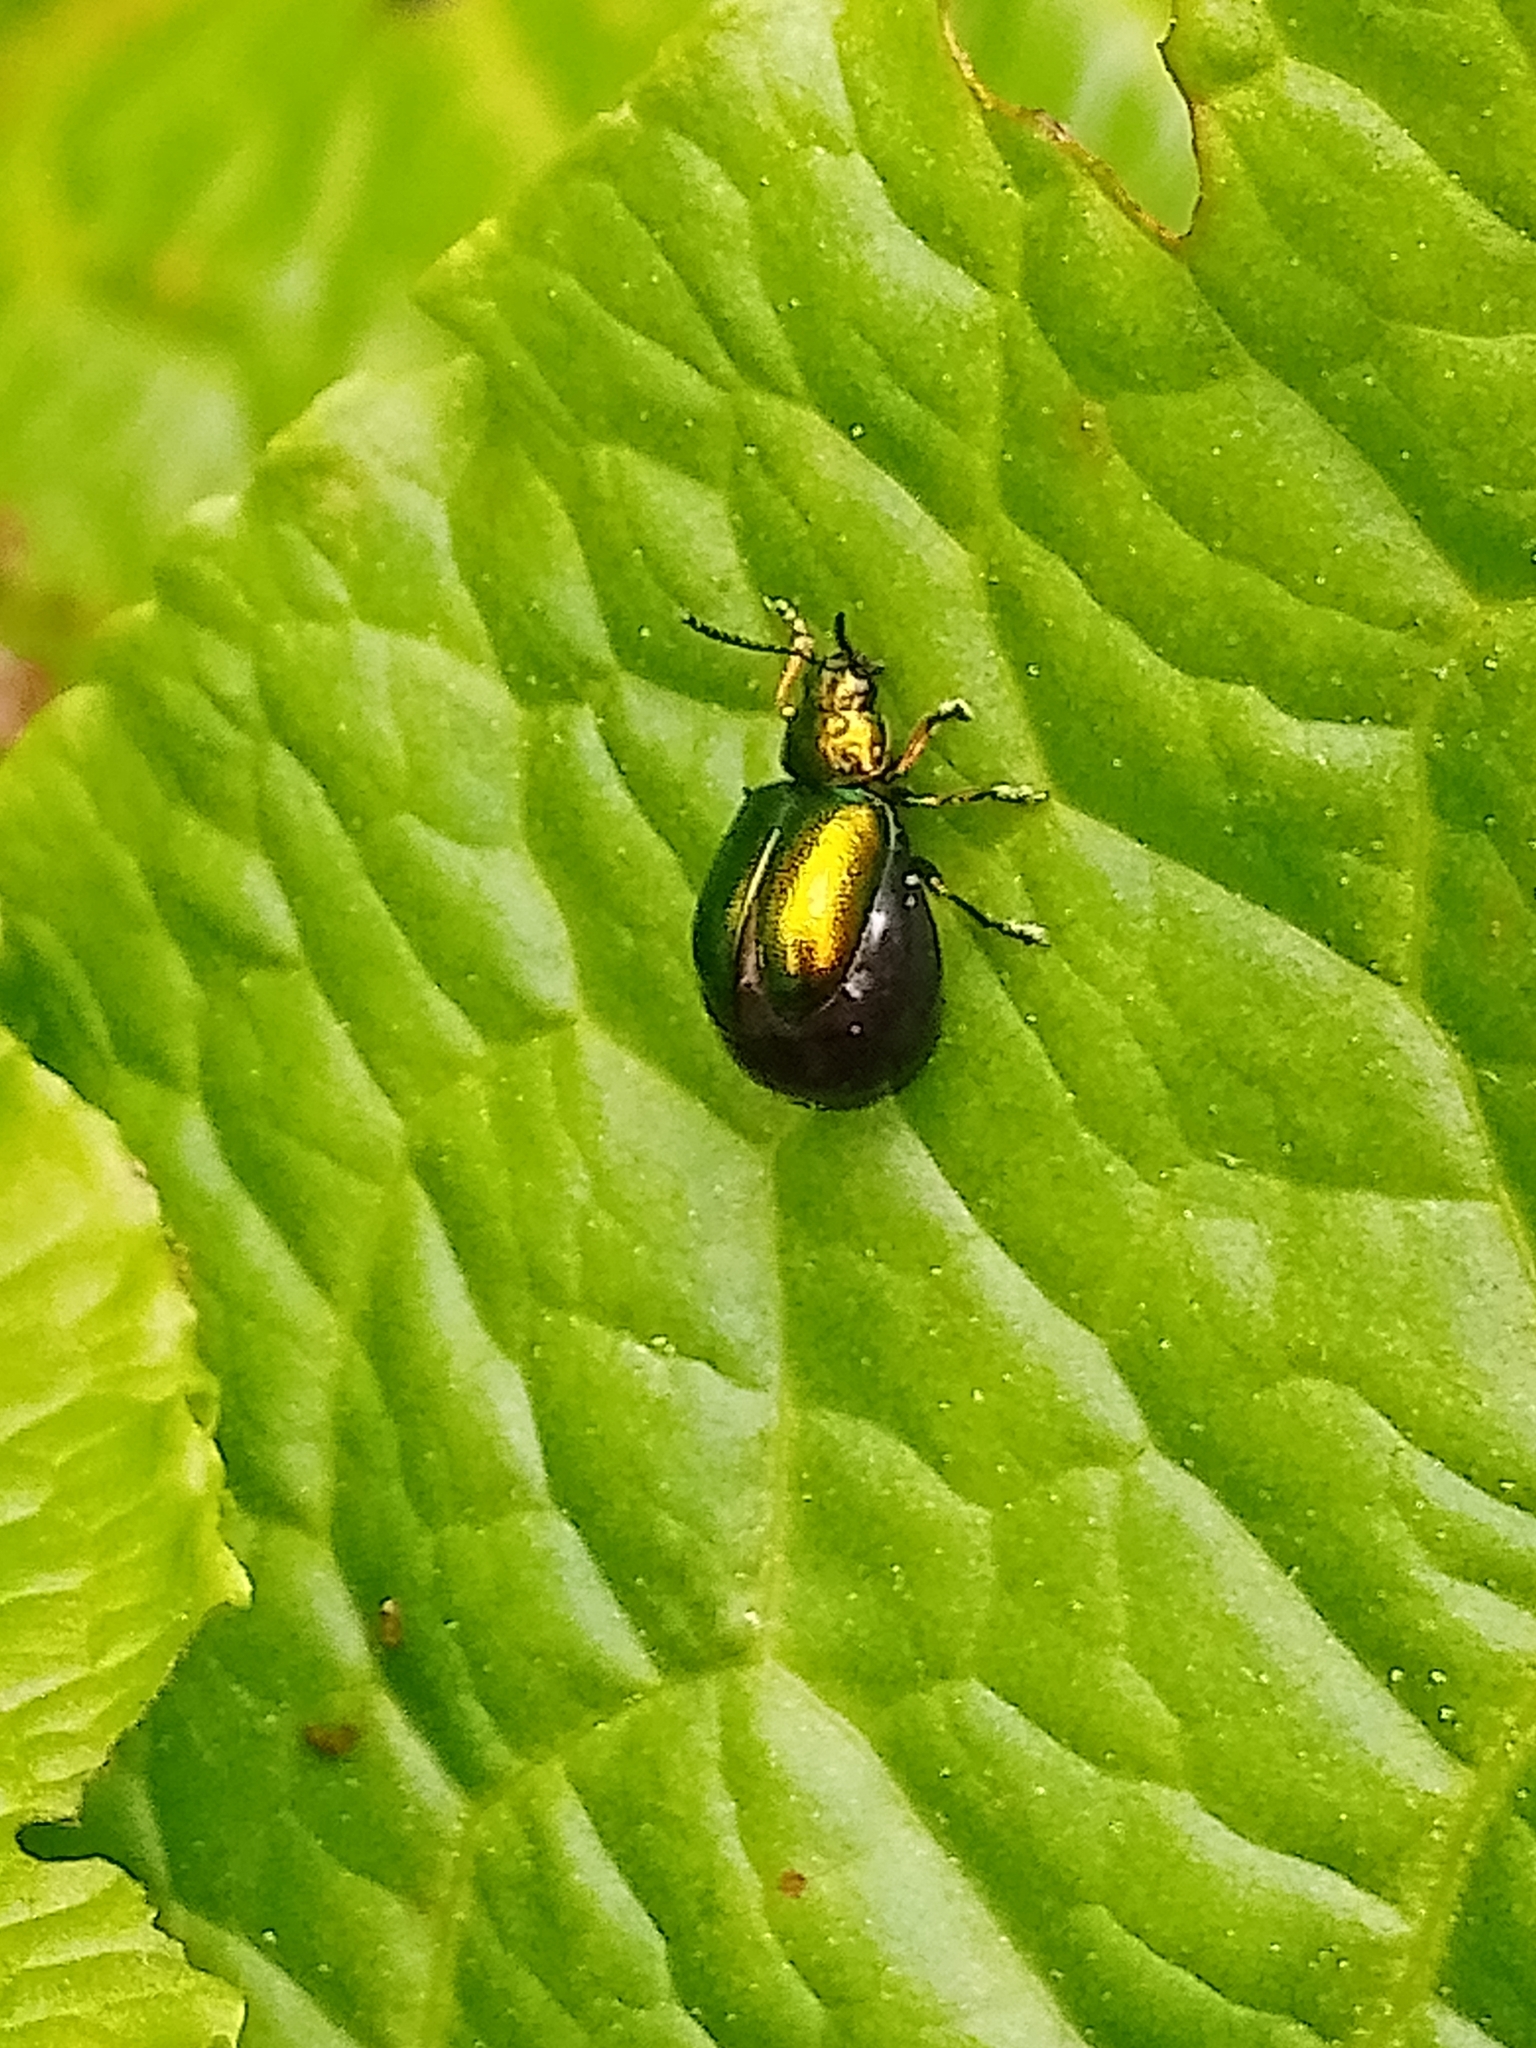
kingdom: Animalia
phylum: Arthropoda
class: Insecta
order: Coleoptera
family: Chrysomelidae
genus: Gastrophysa
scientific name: Gastrophysa viridula
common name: Green dock beetle
